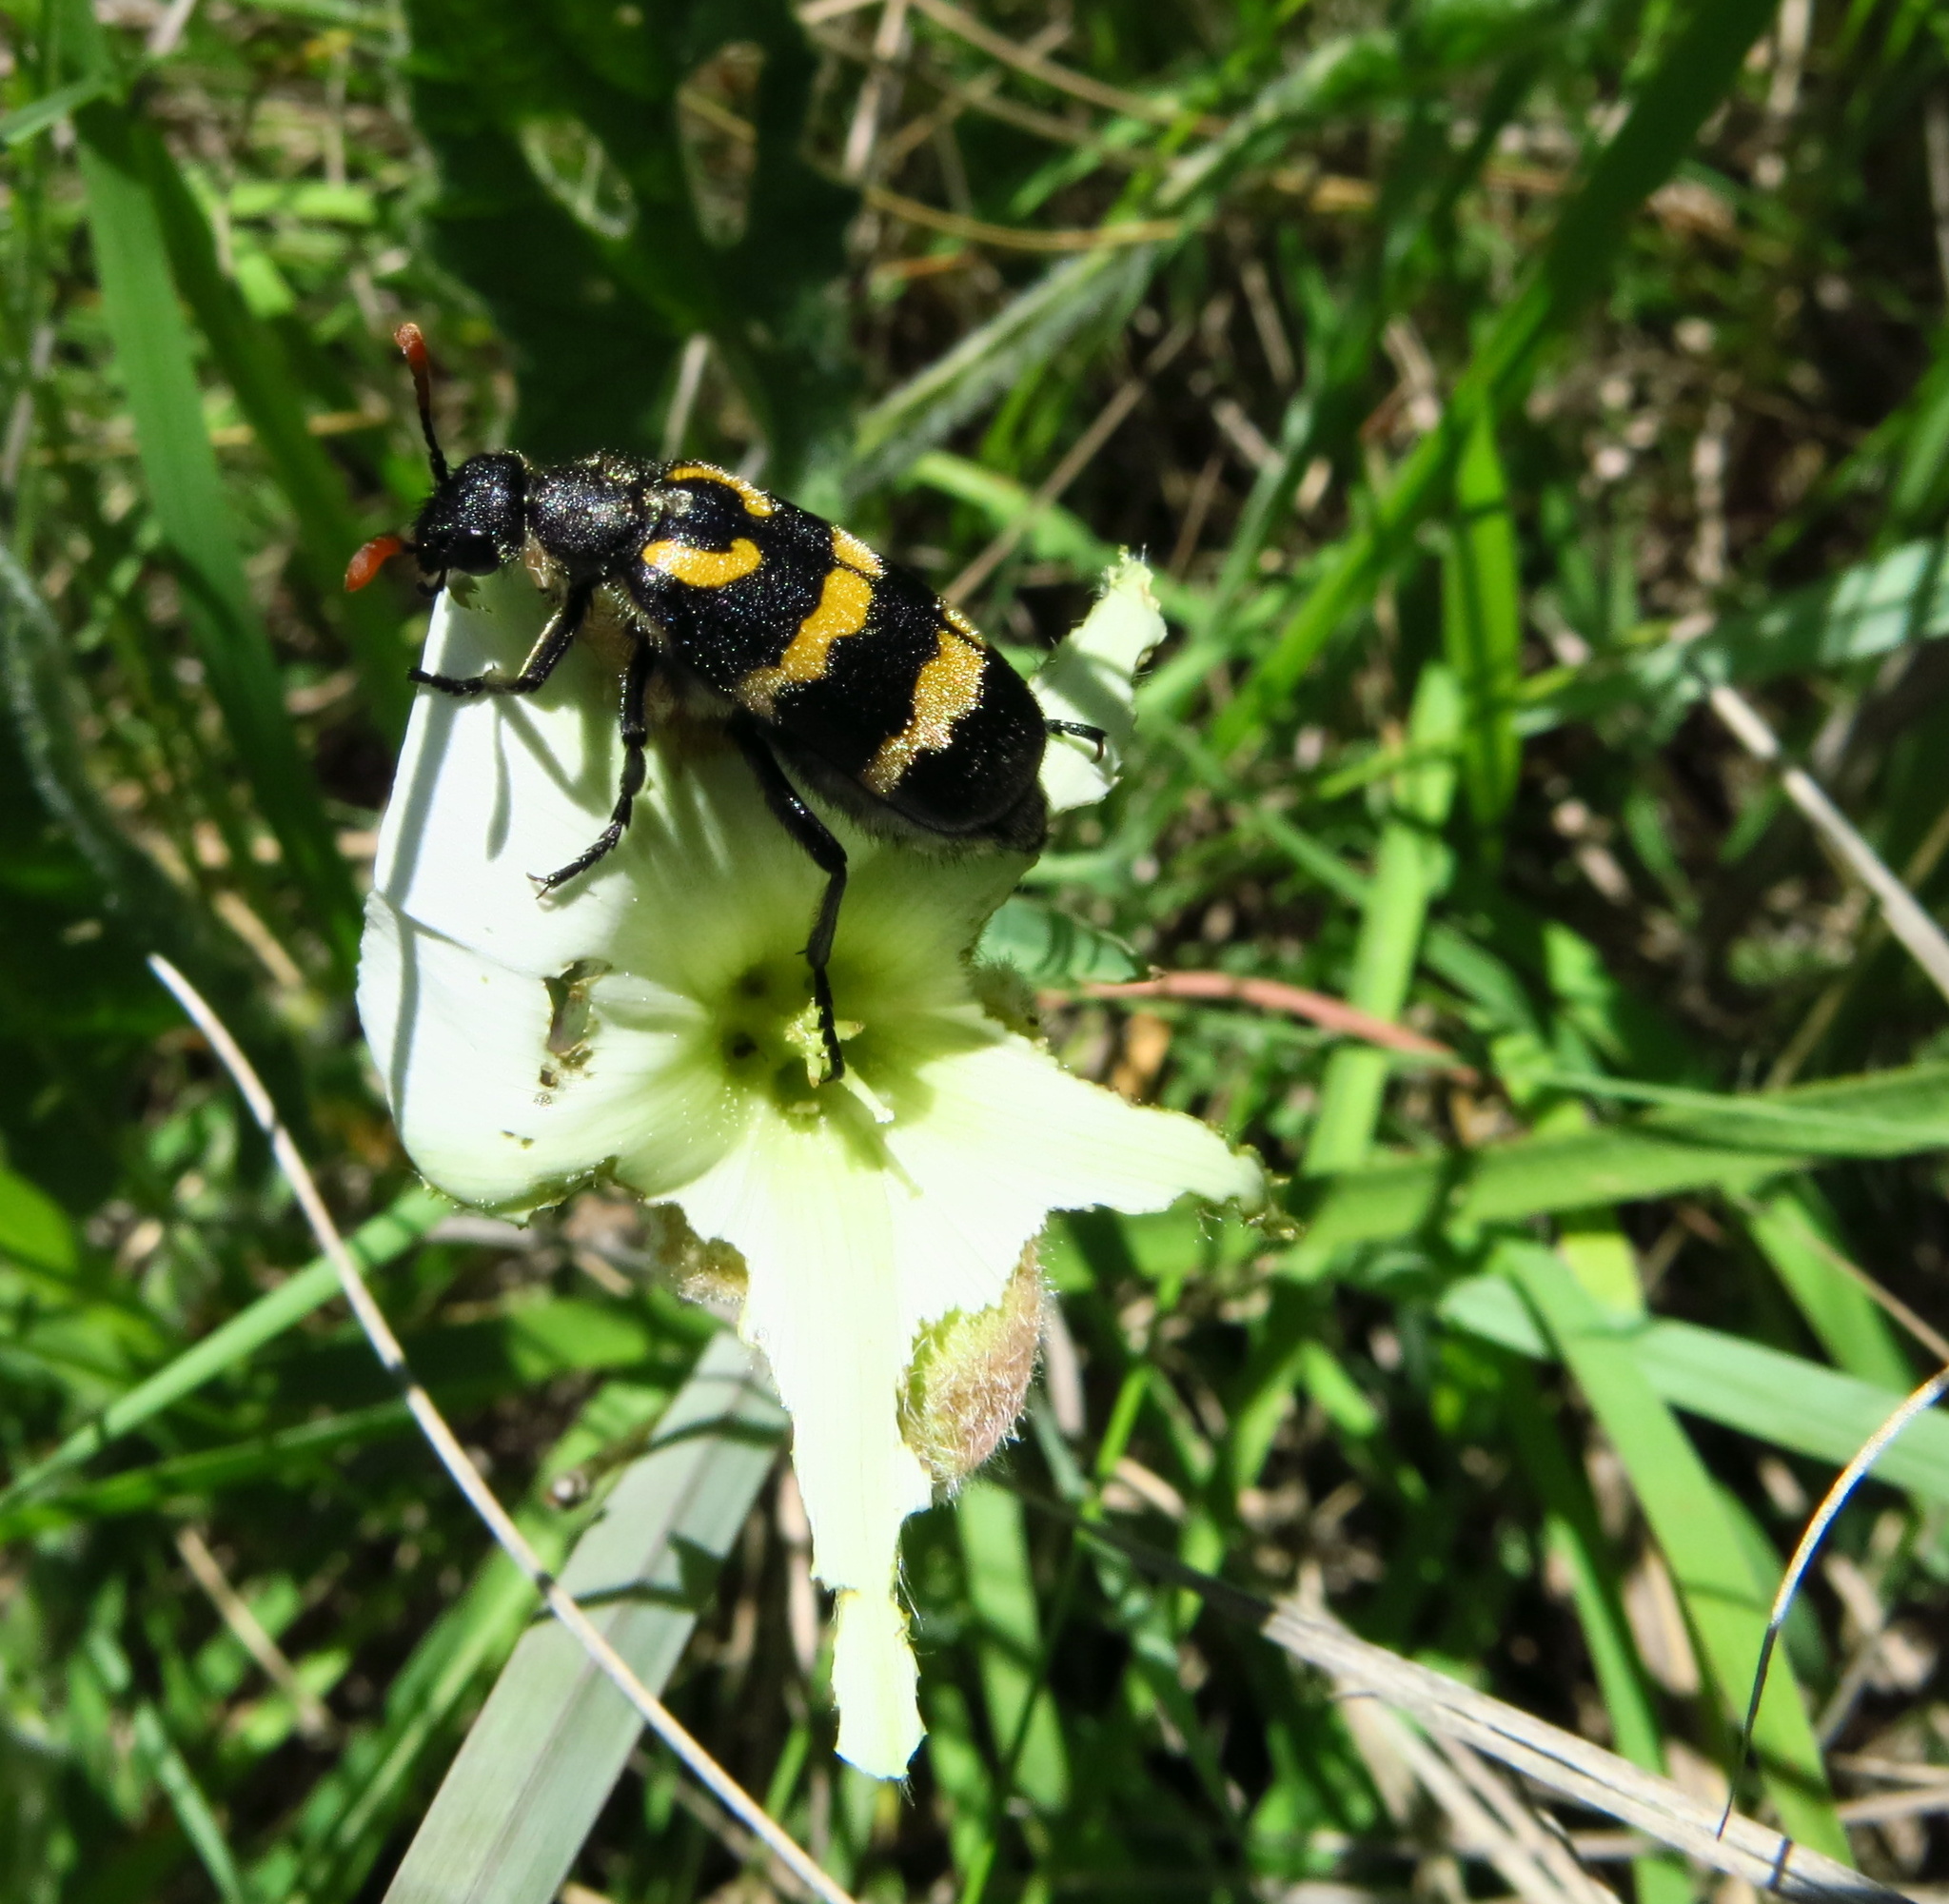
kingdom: Animalia
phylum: Arthropoda
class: Insecta
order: Coleoptera
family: Meloidae
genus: Meloe
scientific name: Meloe lunata
